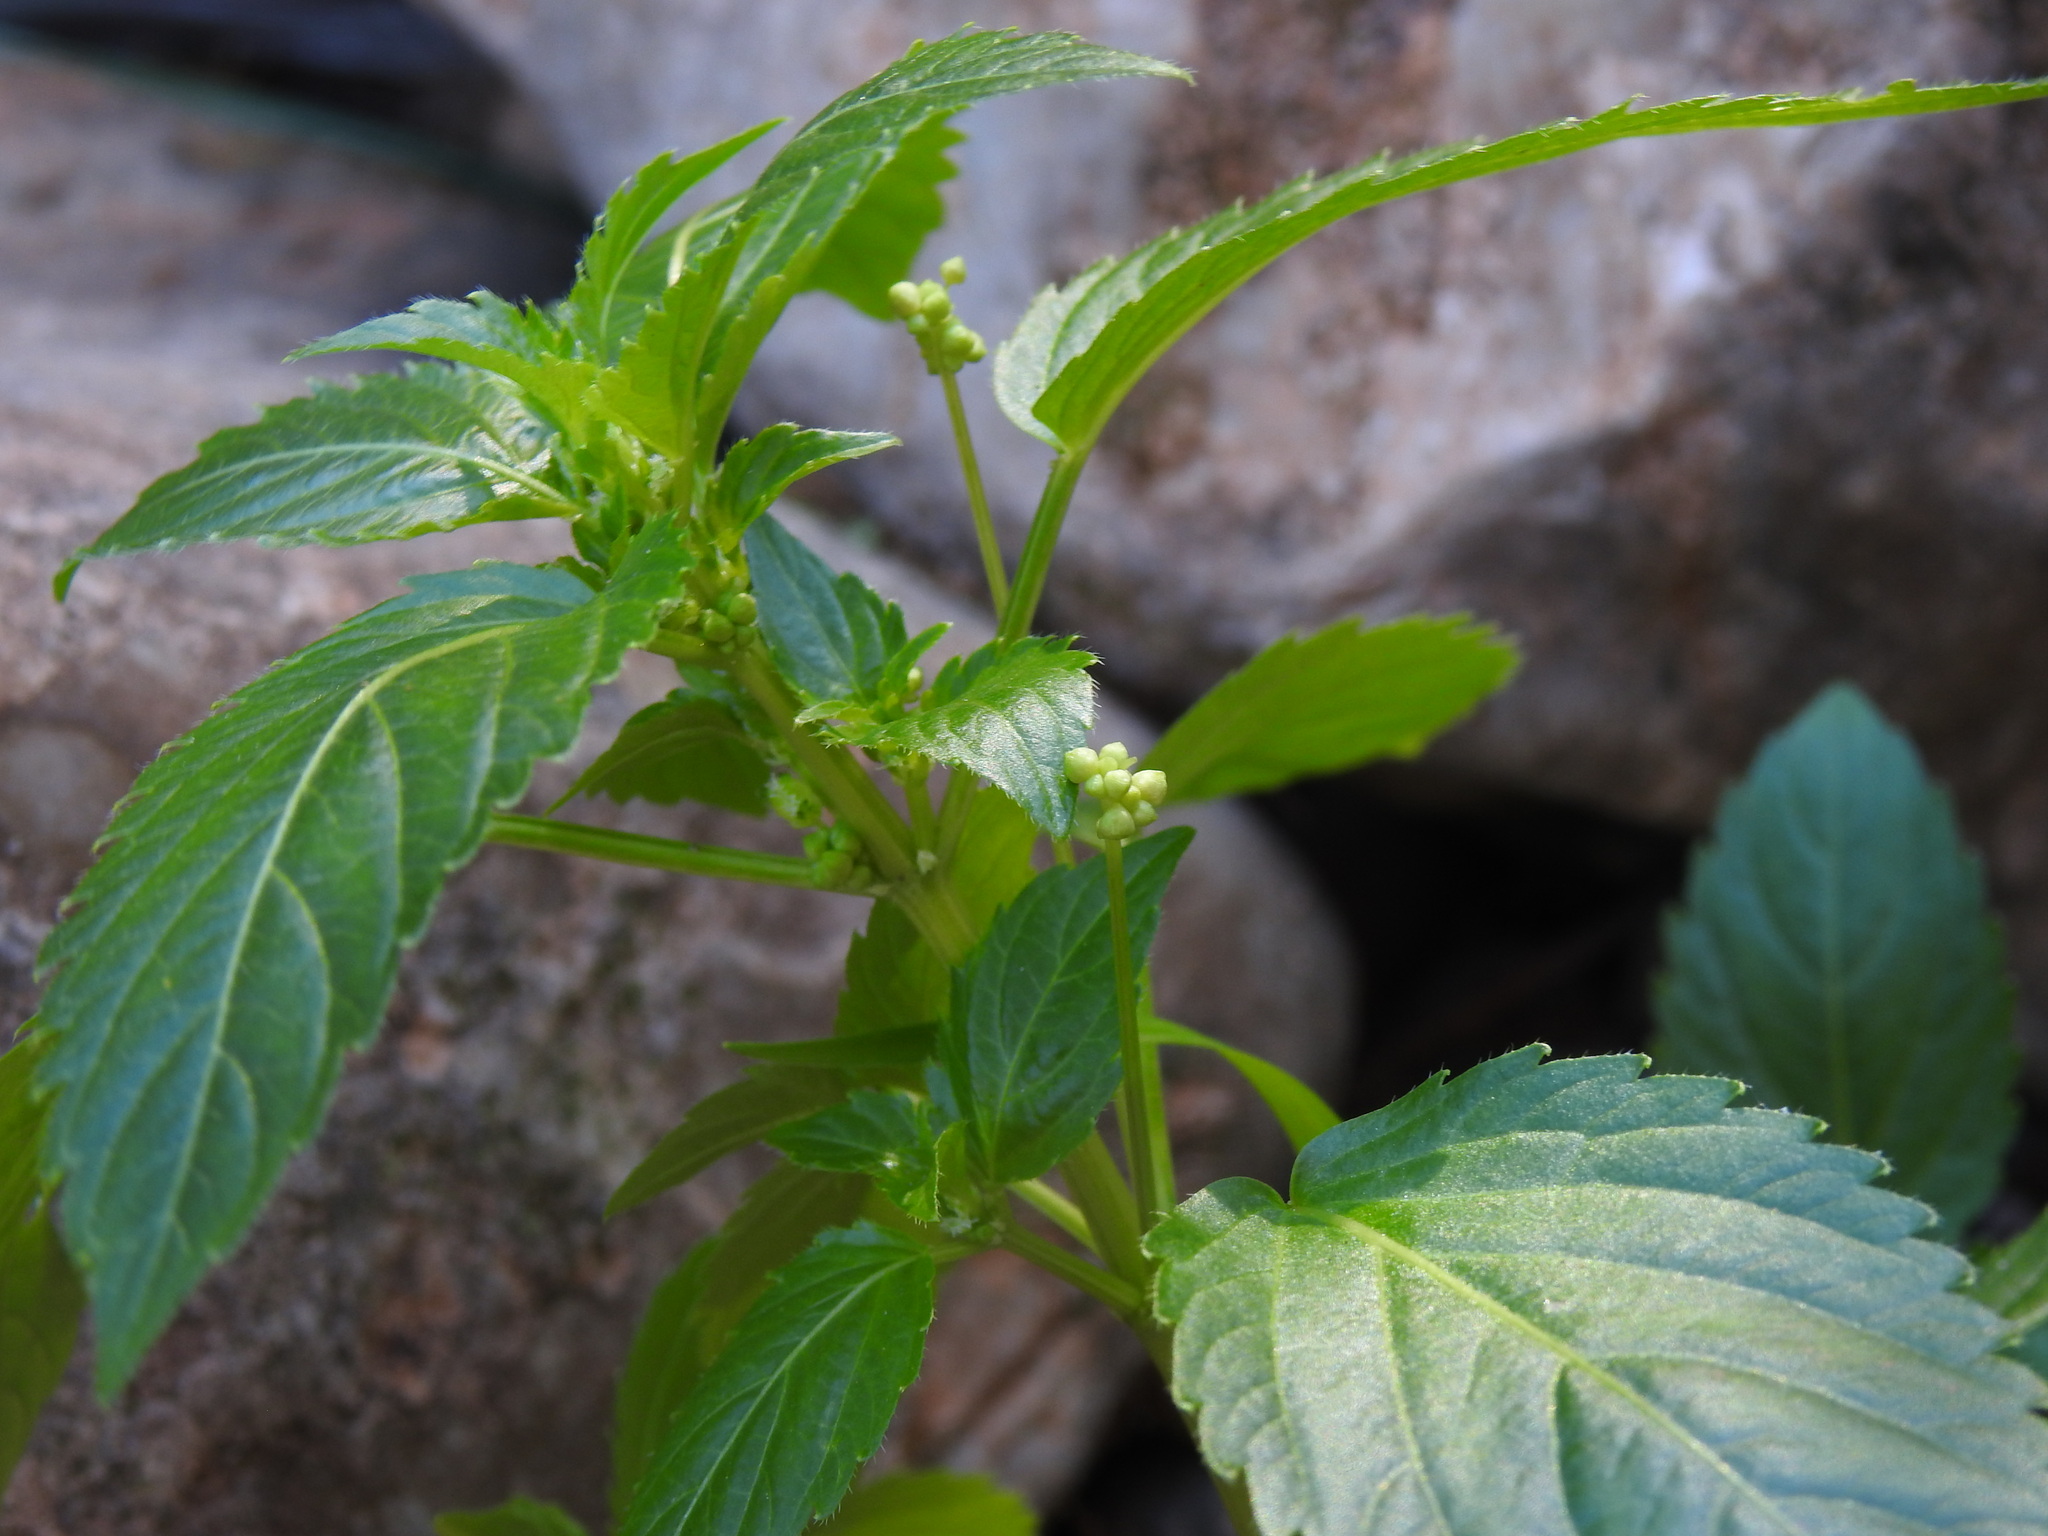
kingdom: Plantae
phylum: Tracheophyta
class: Magnoliopsida
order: Malpighiales
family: Euphorbiaceae
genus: Mercurialis
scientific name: Mercurialis annua
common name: Annual mercury
